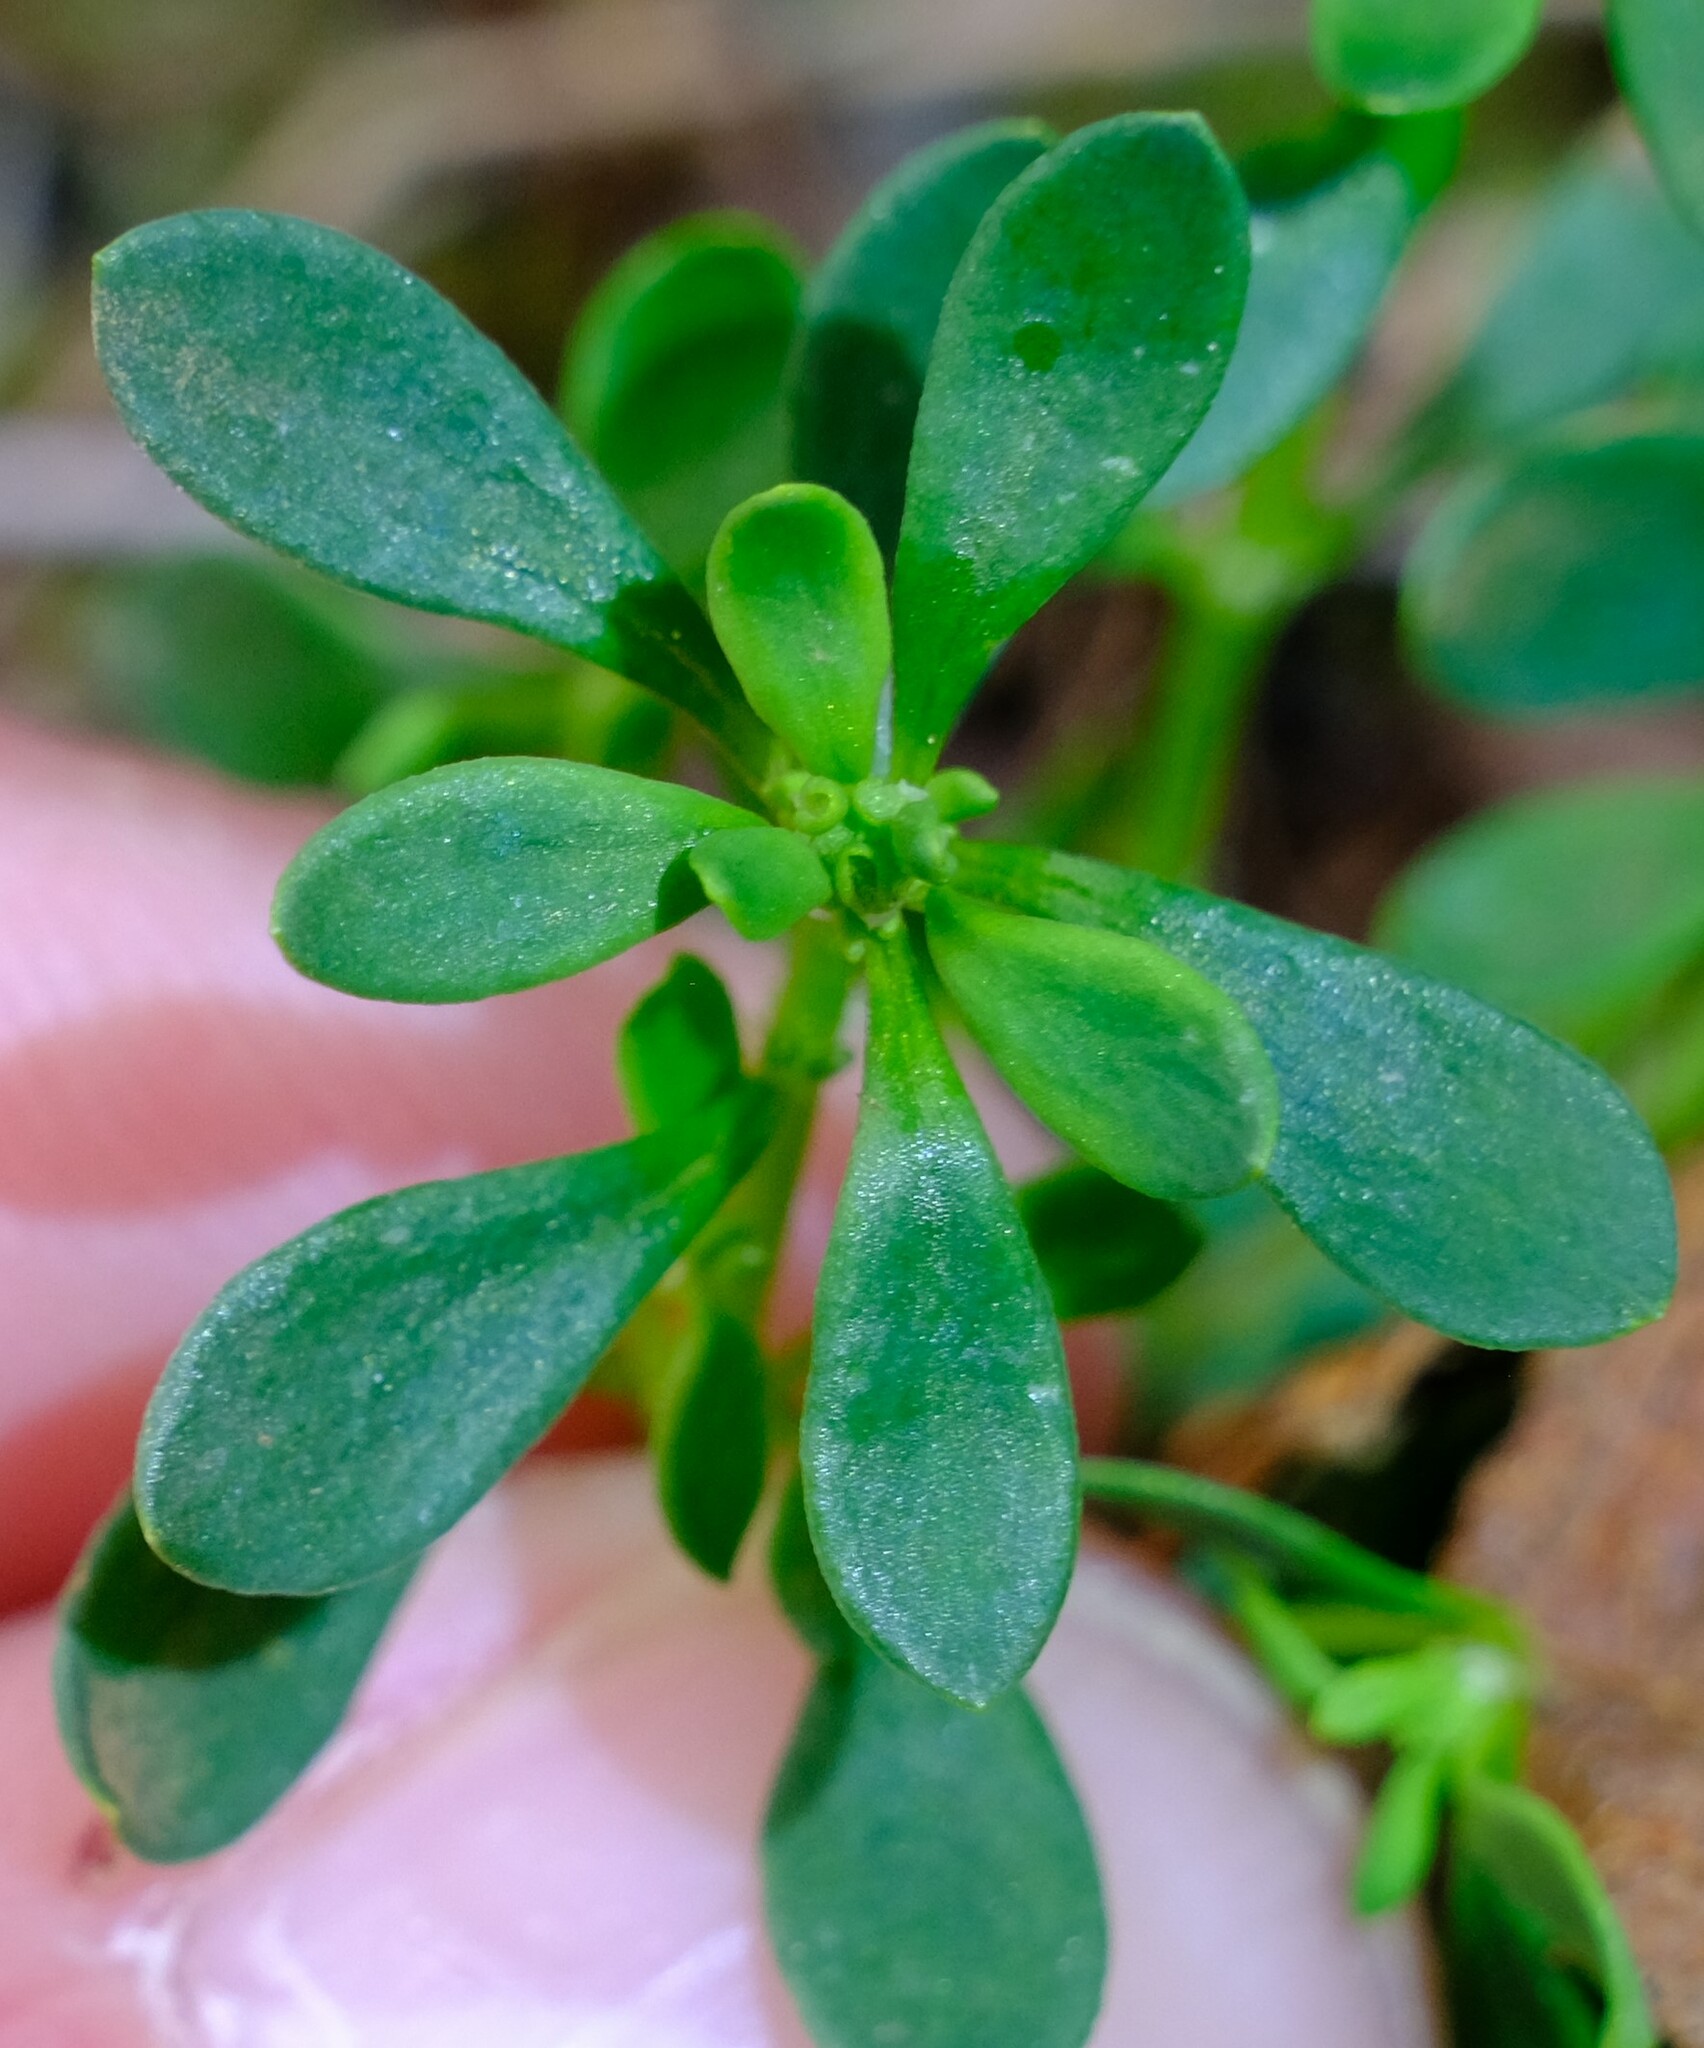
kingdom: Plantae
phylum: Tracheophyta
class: Magnoliopsida
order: Malpighiales
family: Phyllanthaceae
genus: Poranthera
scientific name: Poranthera microphylla
